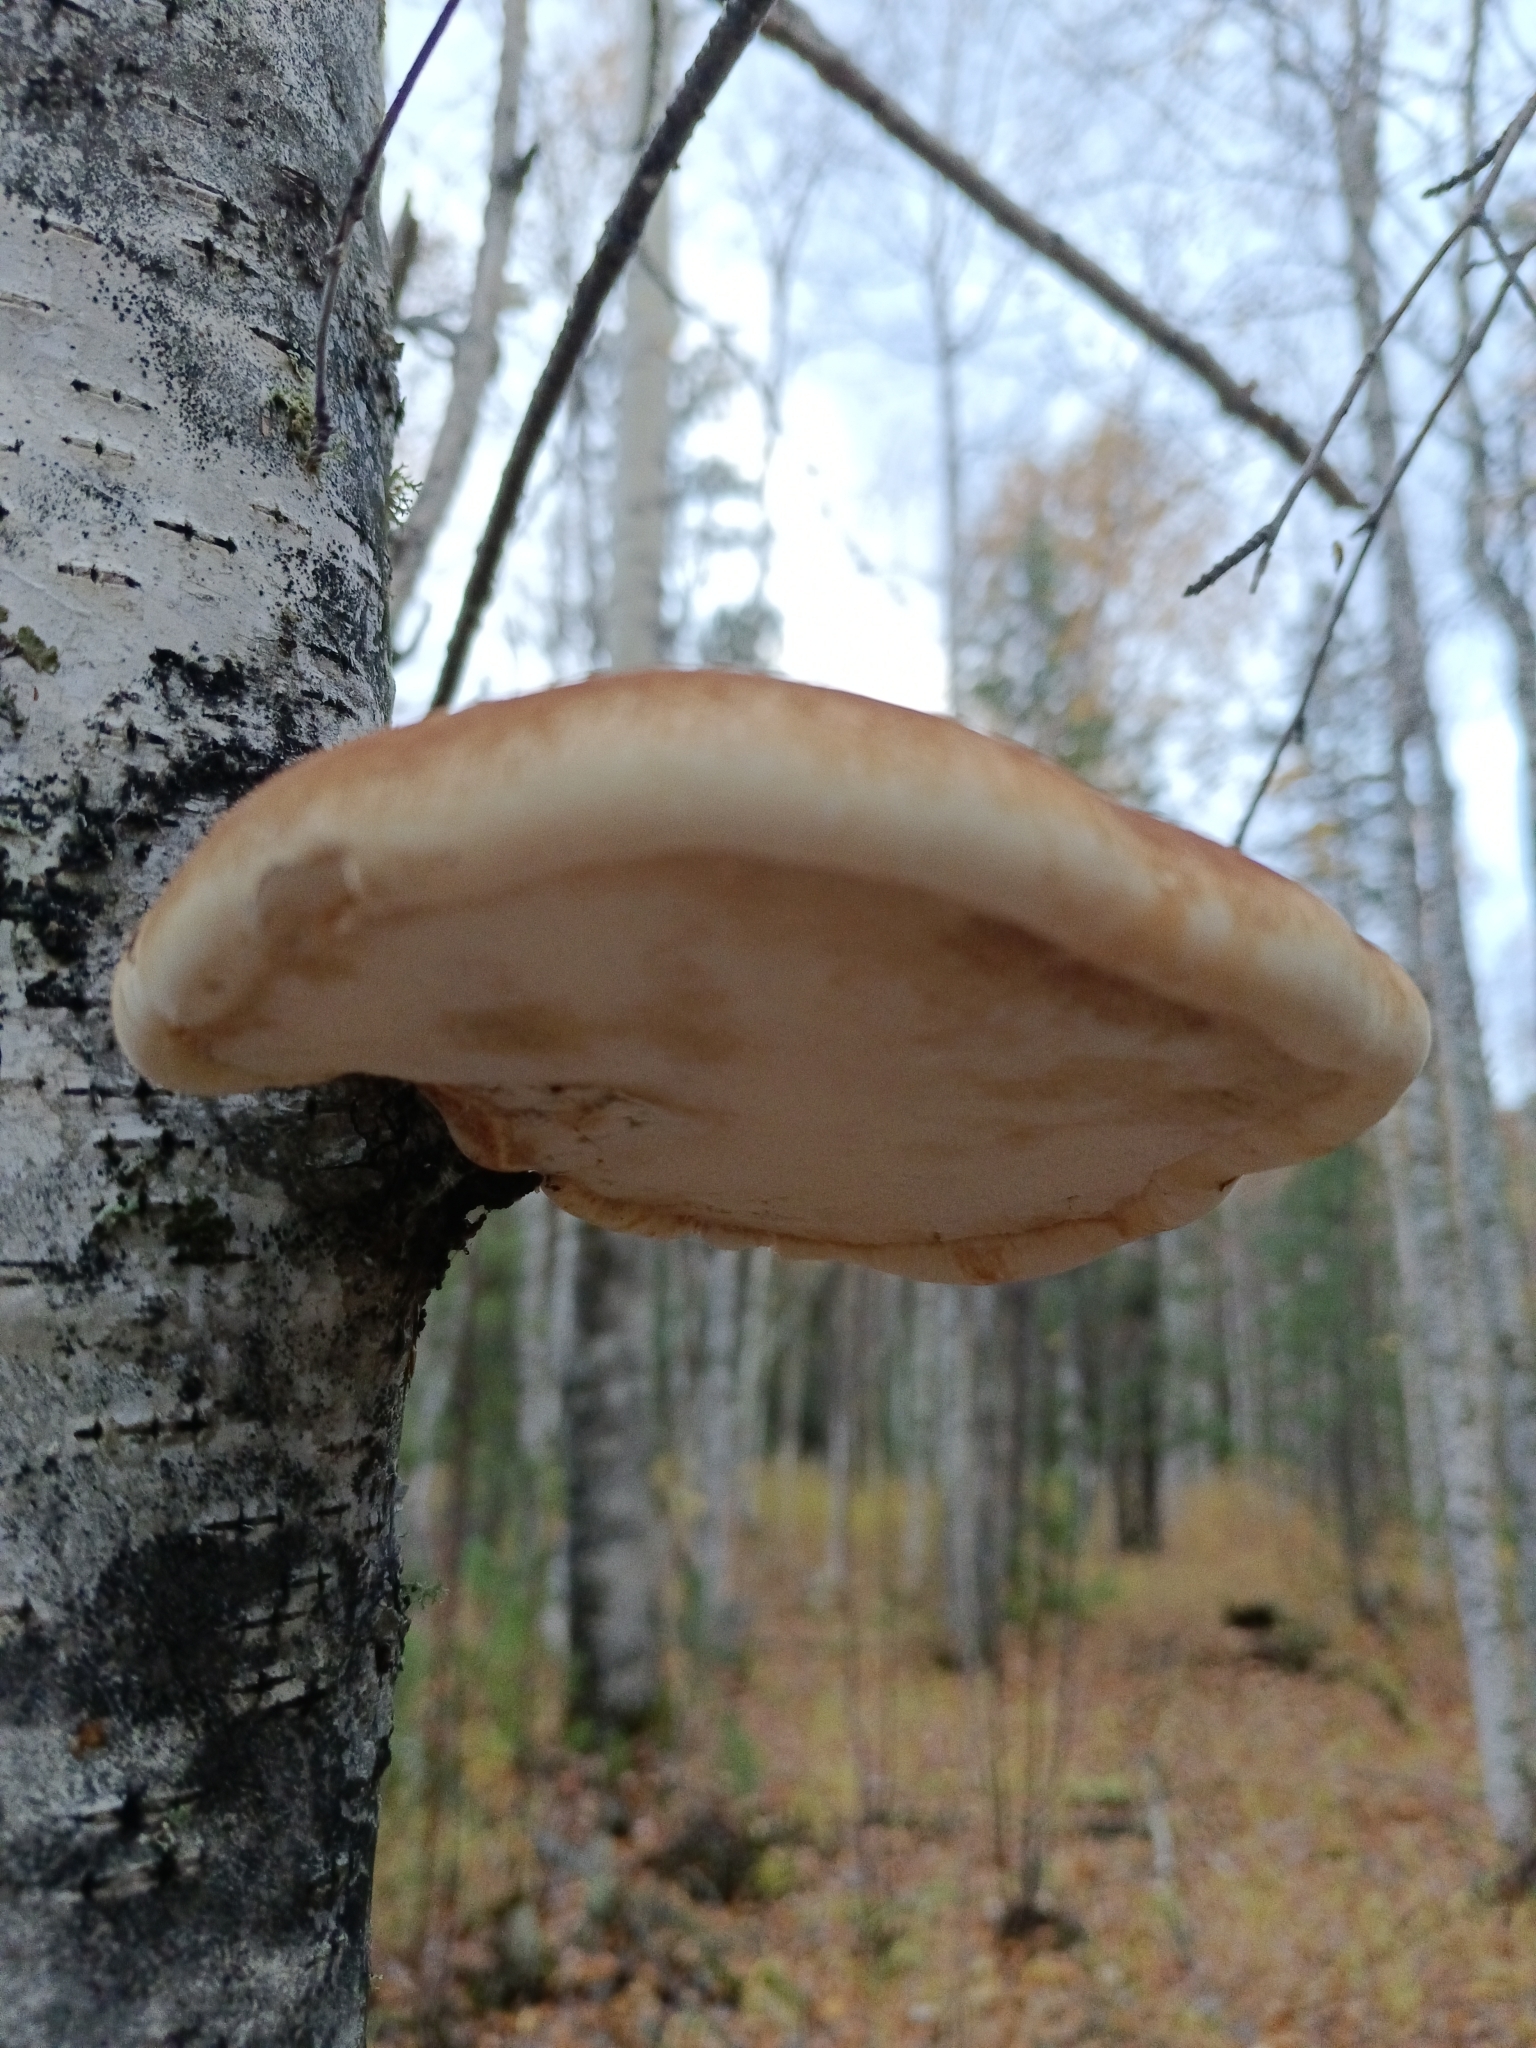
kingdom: Fungi
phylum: Basidiomycota
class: Agaricomycetes
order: Polyporales
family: Fomitopsidaceae
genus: Fomitopsis
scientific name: Fomitopsis betulina
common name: Birch polypore
